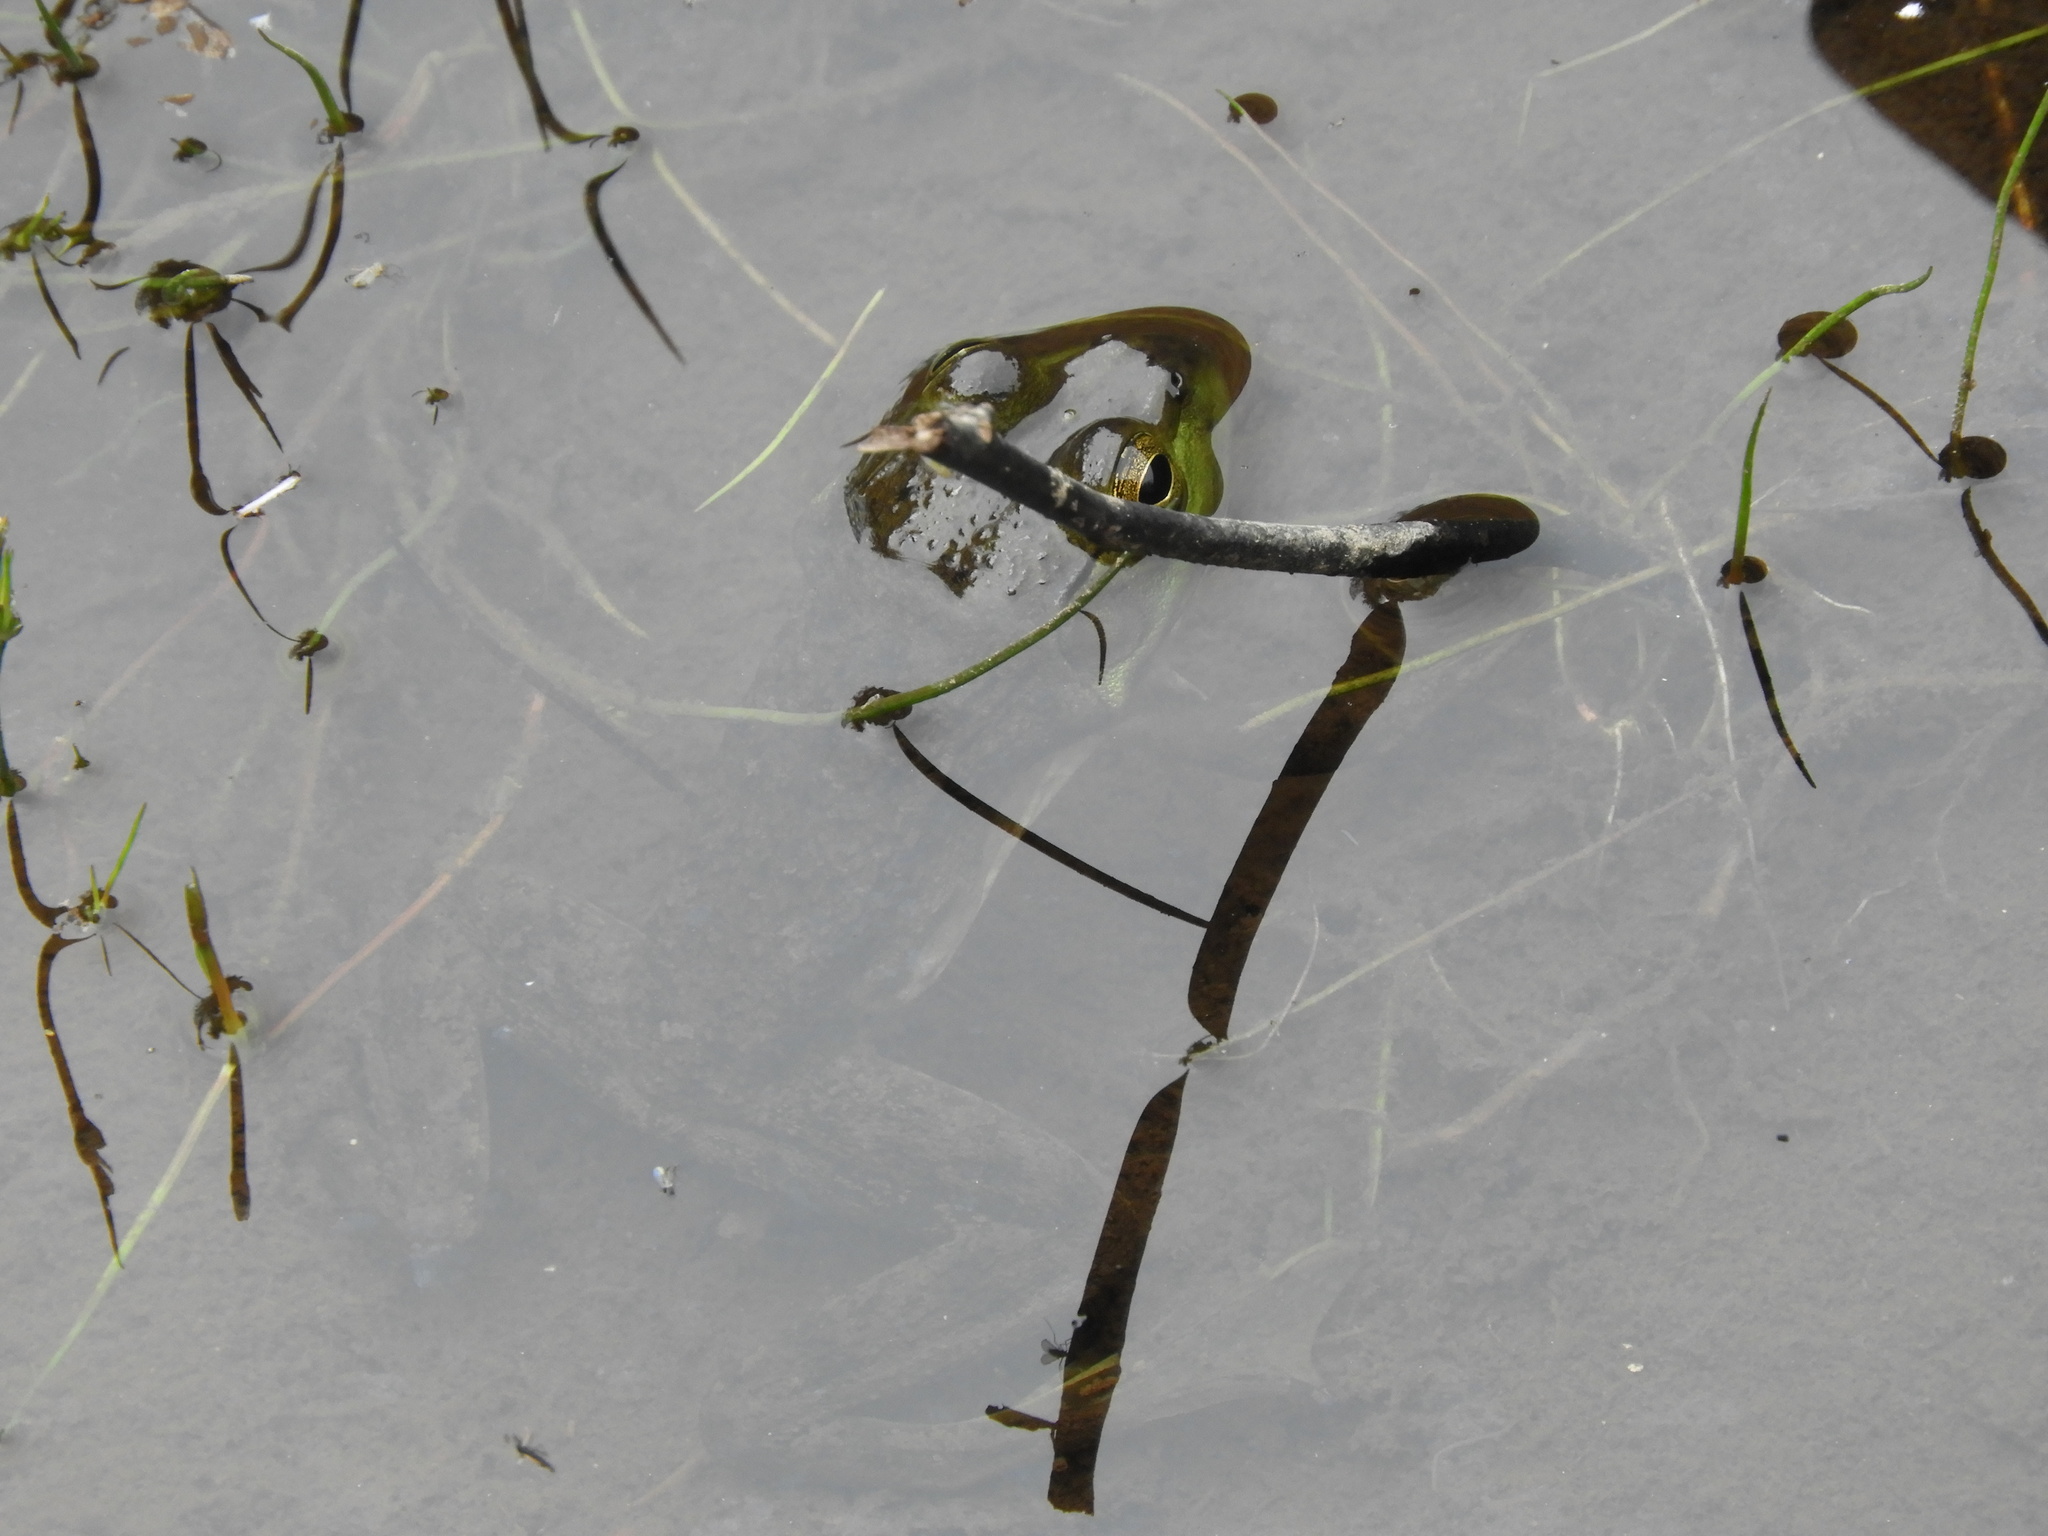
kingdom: Animalia
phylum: Chordata
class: Amphibia
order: Anura
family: Ranidae
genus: Lithobates
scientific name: Lithobates catesbeianus
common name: American bullfrog
